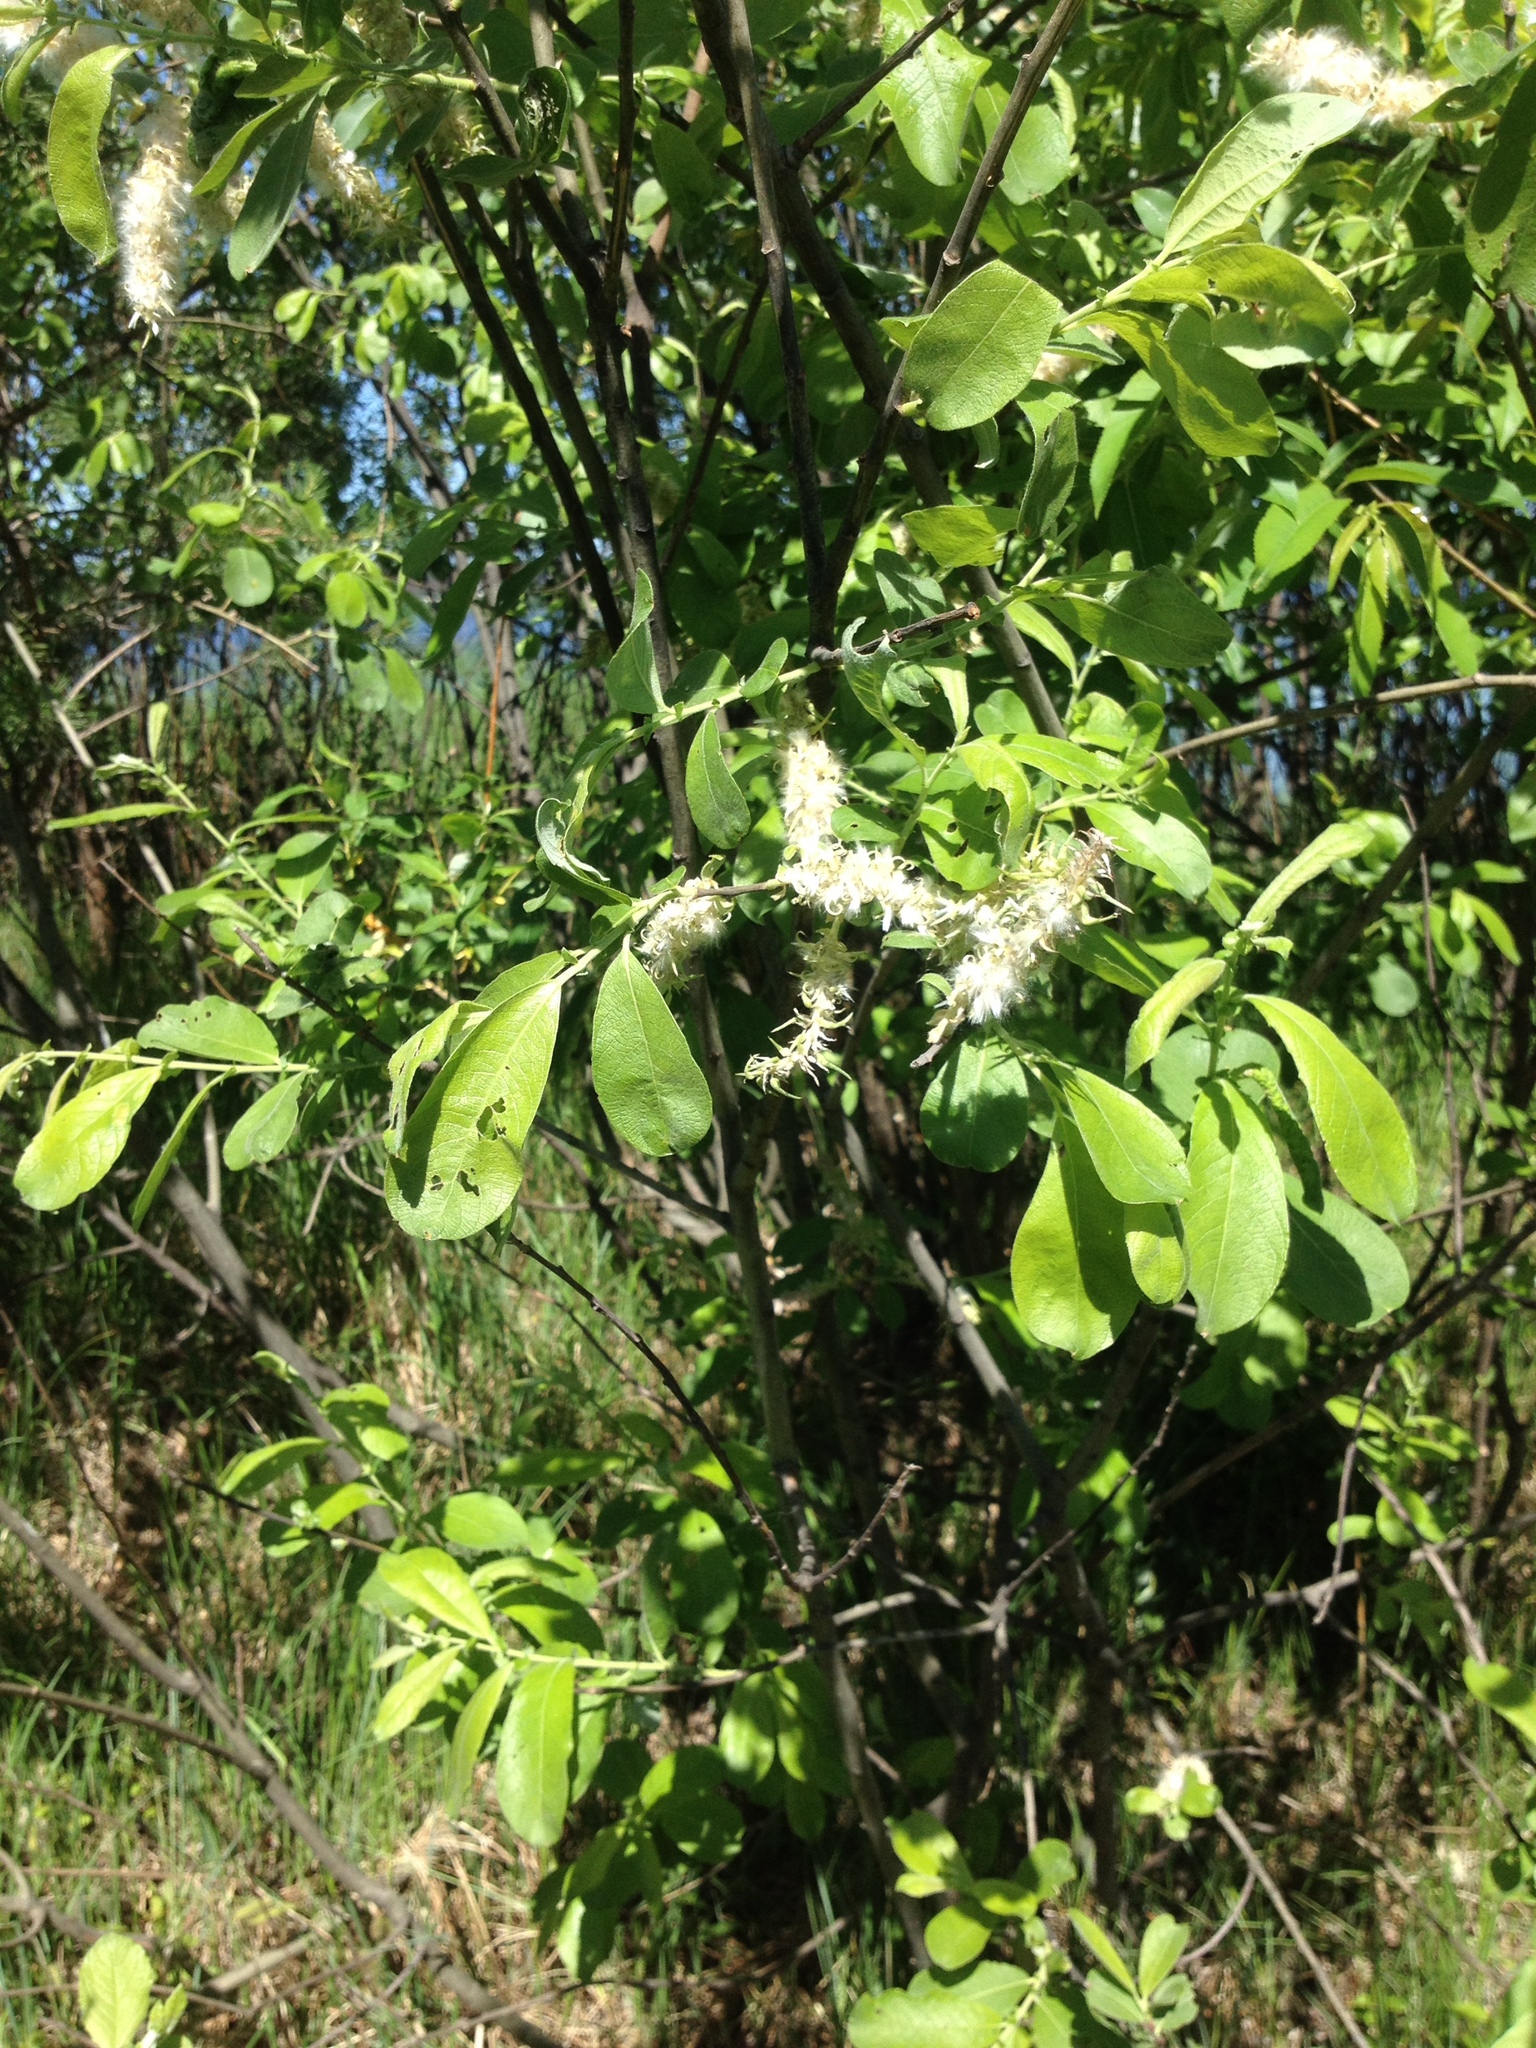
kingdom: Plantae
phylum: Tracheophyta
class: Magnoliopsida
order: Malpighiales
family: Salicaceae
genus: Salix
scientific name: Salix cinerea
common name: Common sallow
